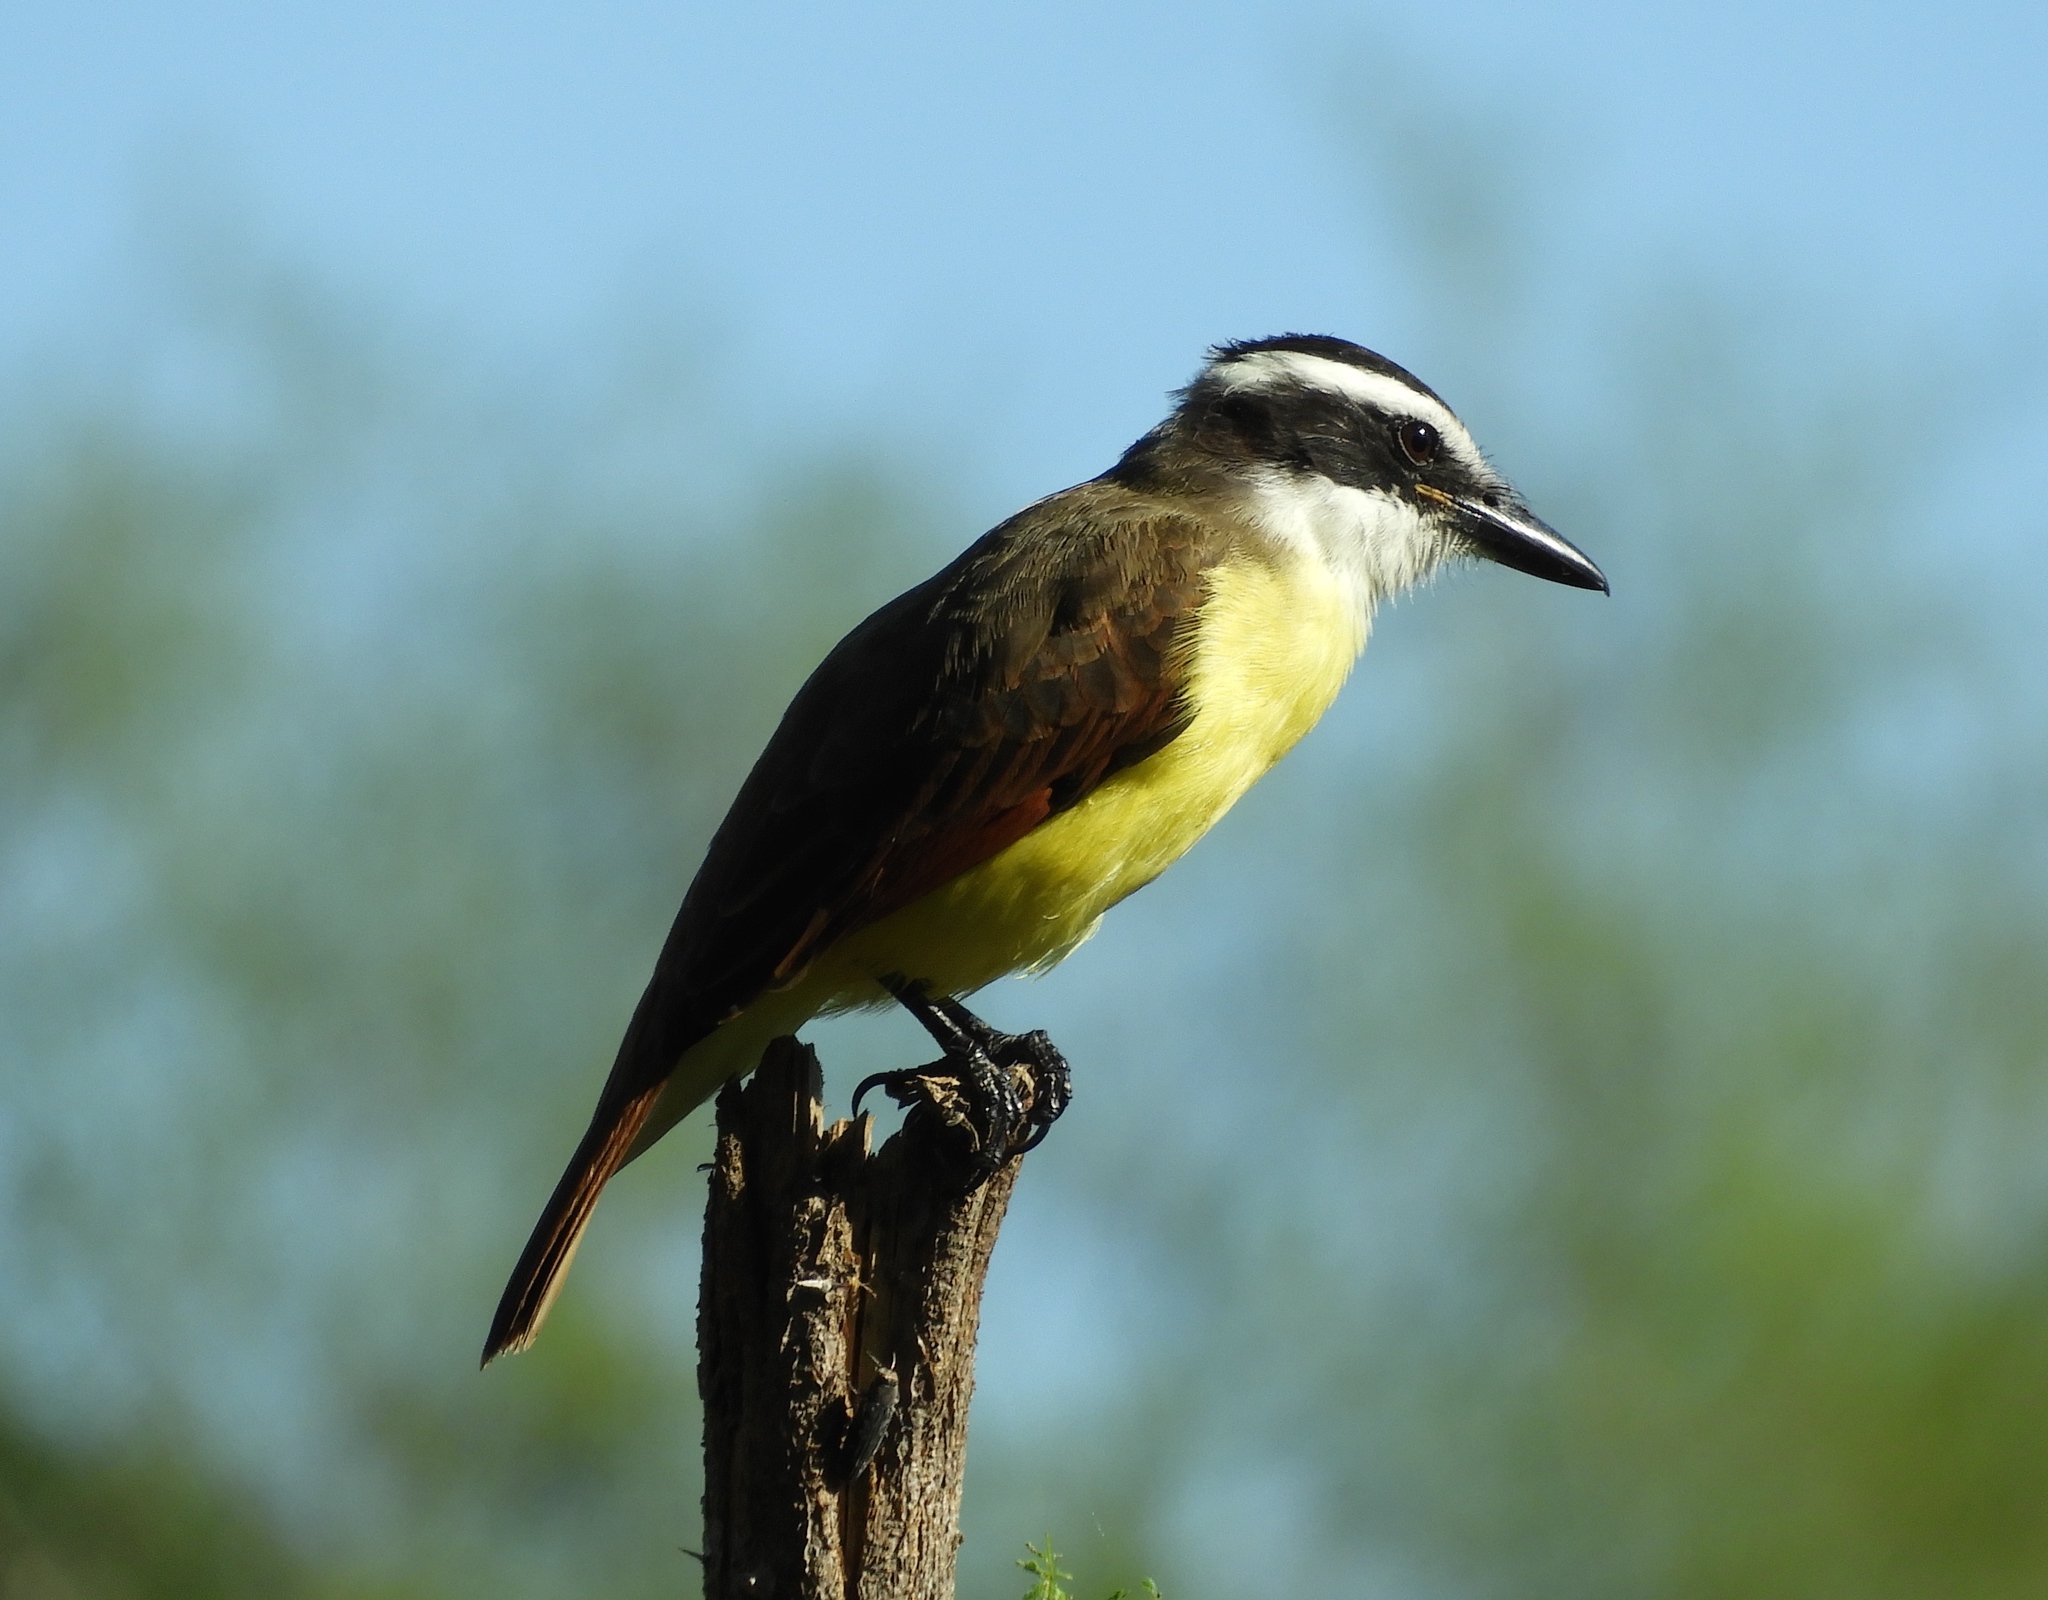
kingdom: Animalia
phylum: Chordata
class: Aves
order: Passeriformes
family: Tyrannidae
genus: Pitangus
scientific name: Pitangus sulphuratus
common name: Great kiskadee
